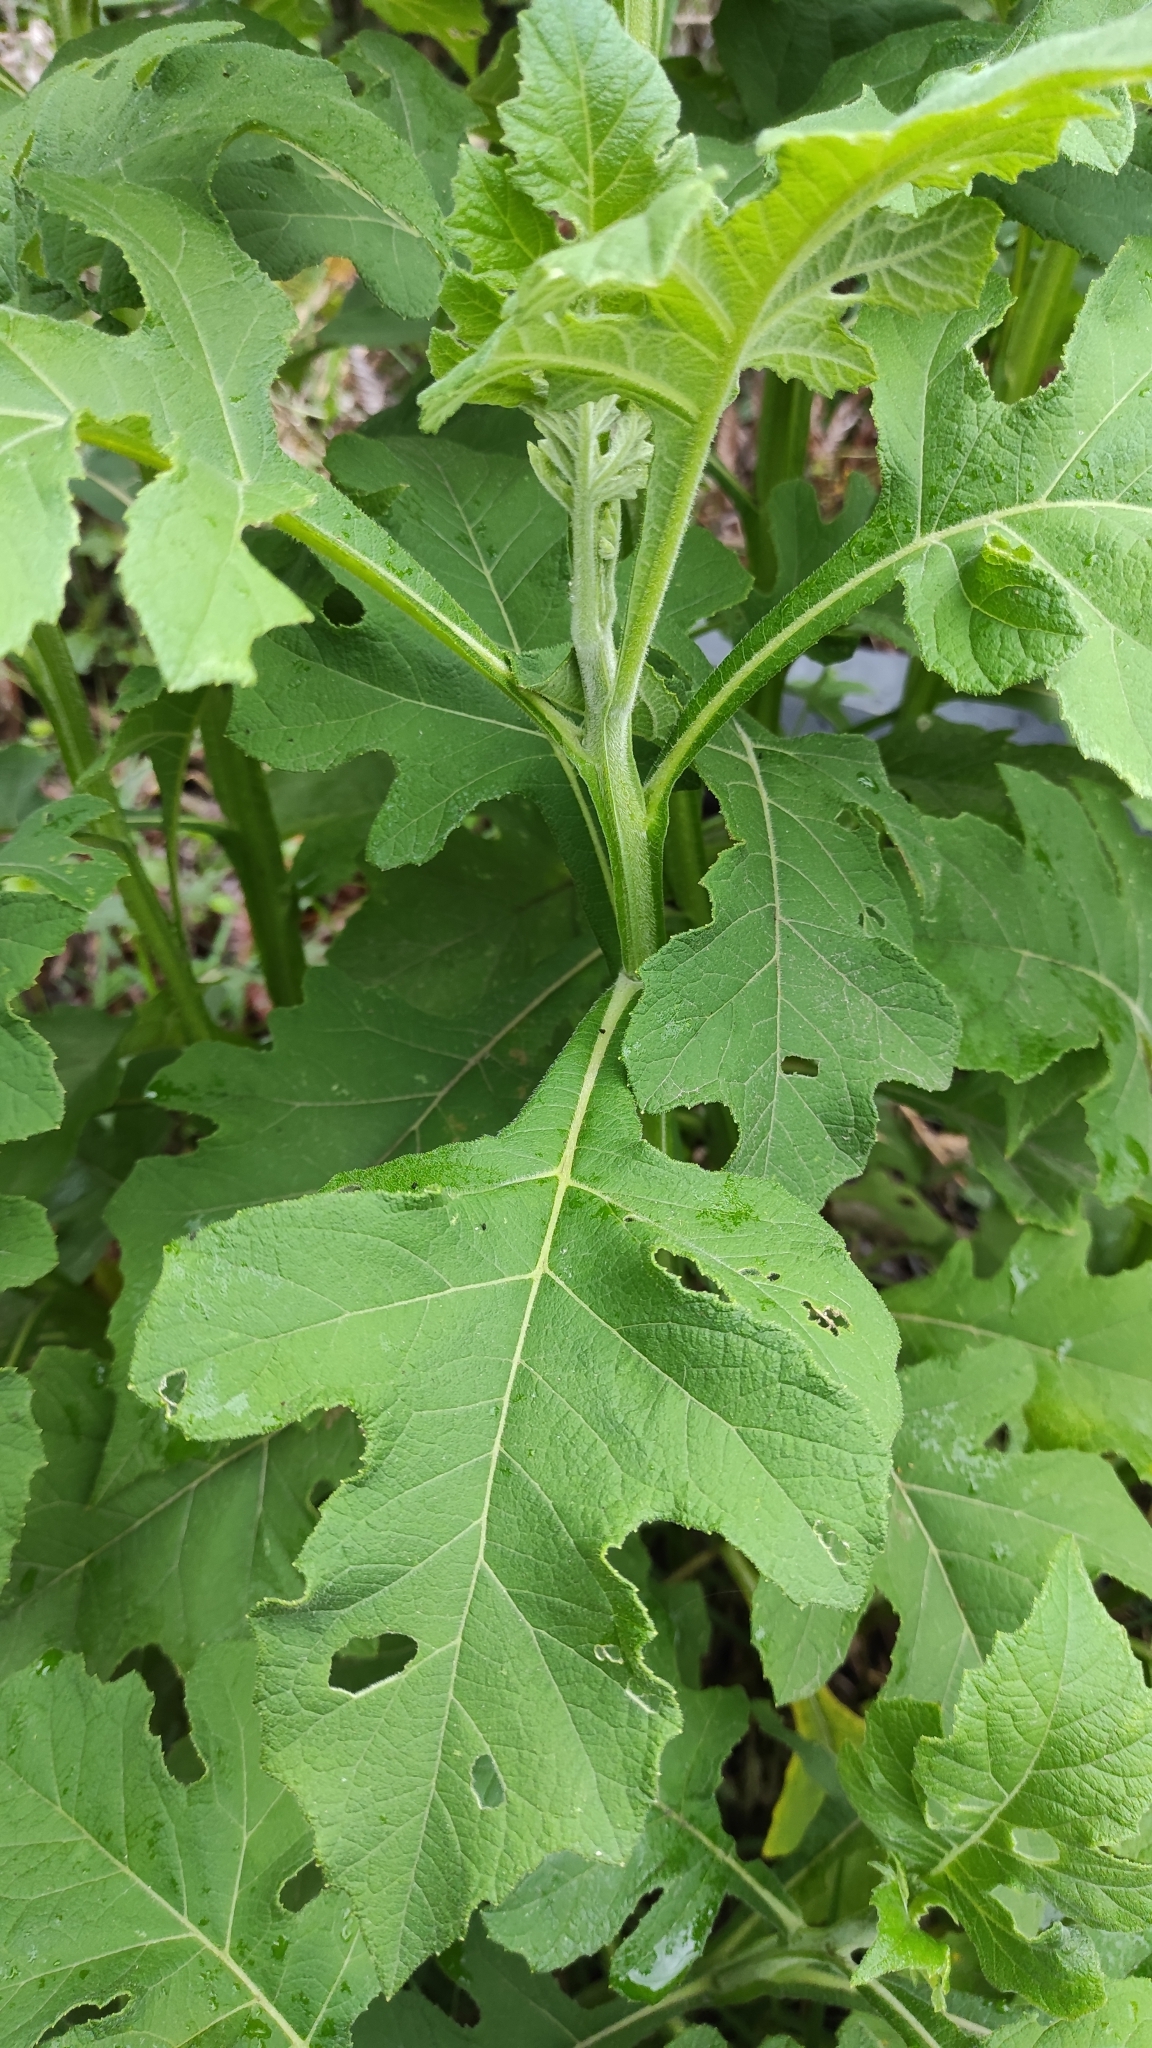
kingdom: Plantae
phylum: Tracheophyta
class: Magnoliopsida
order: Asterales
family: Asteraceae
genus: Verbesina
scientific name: Verbesina turbacensis
